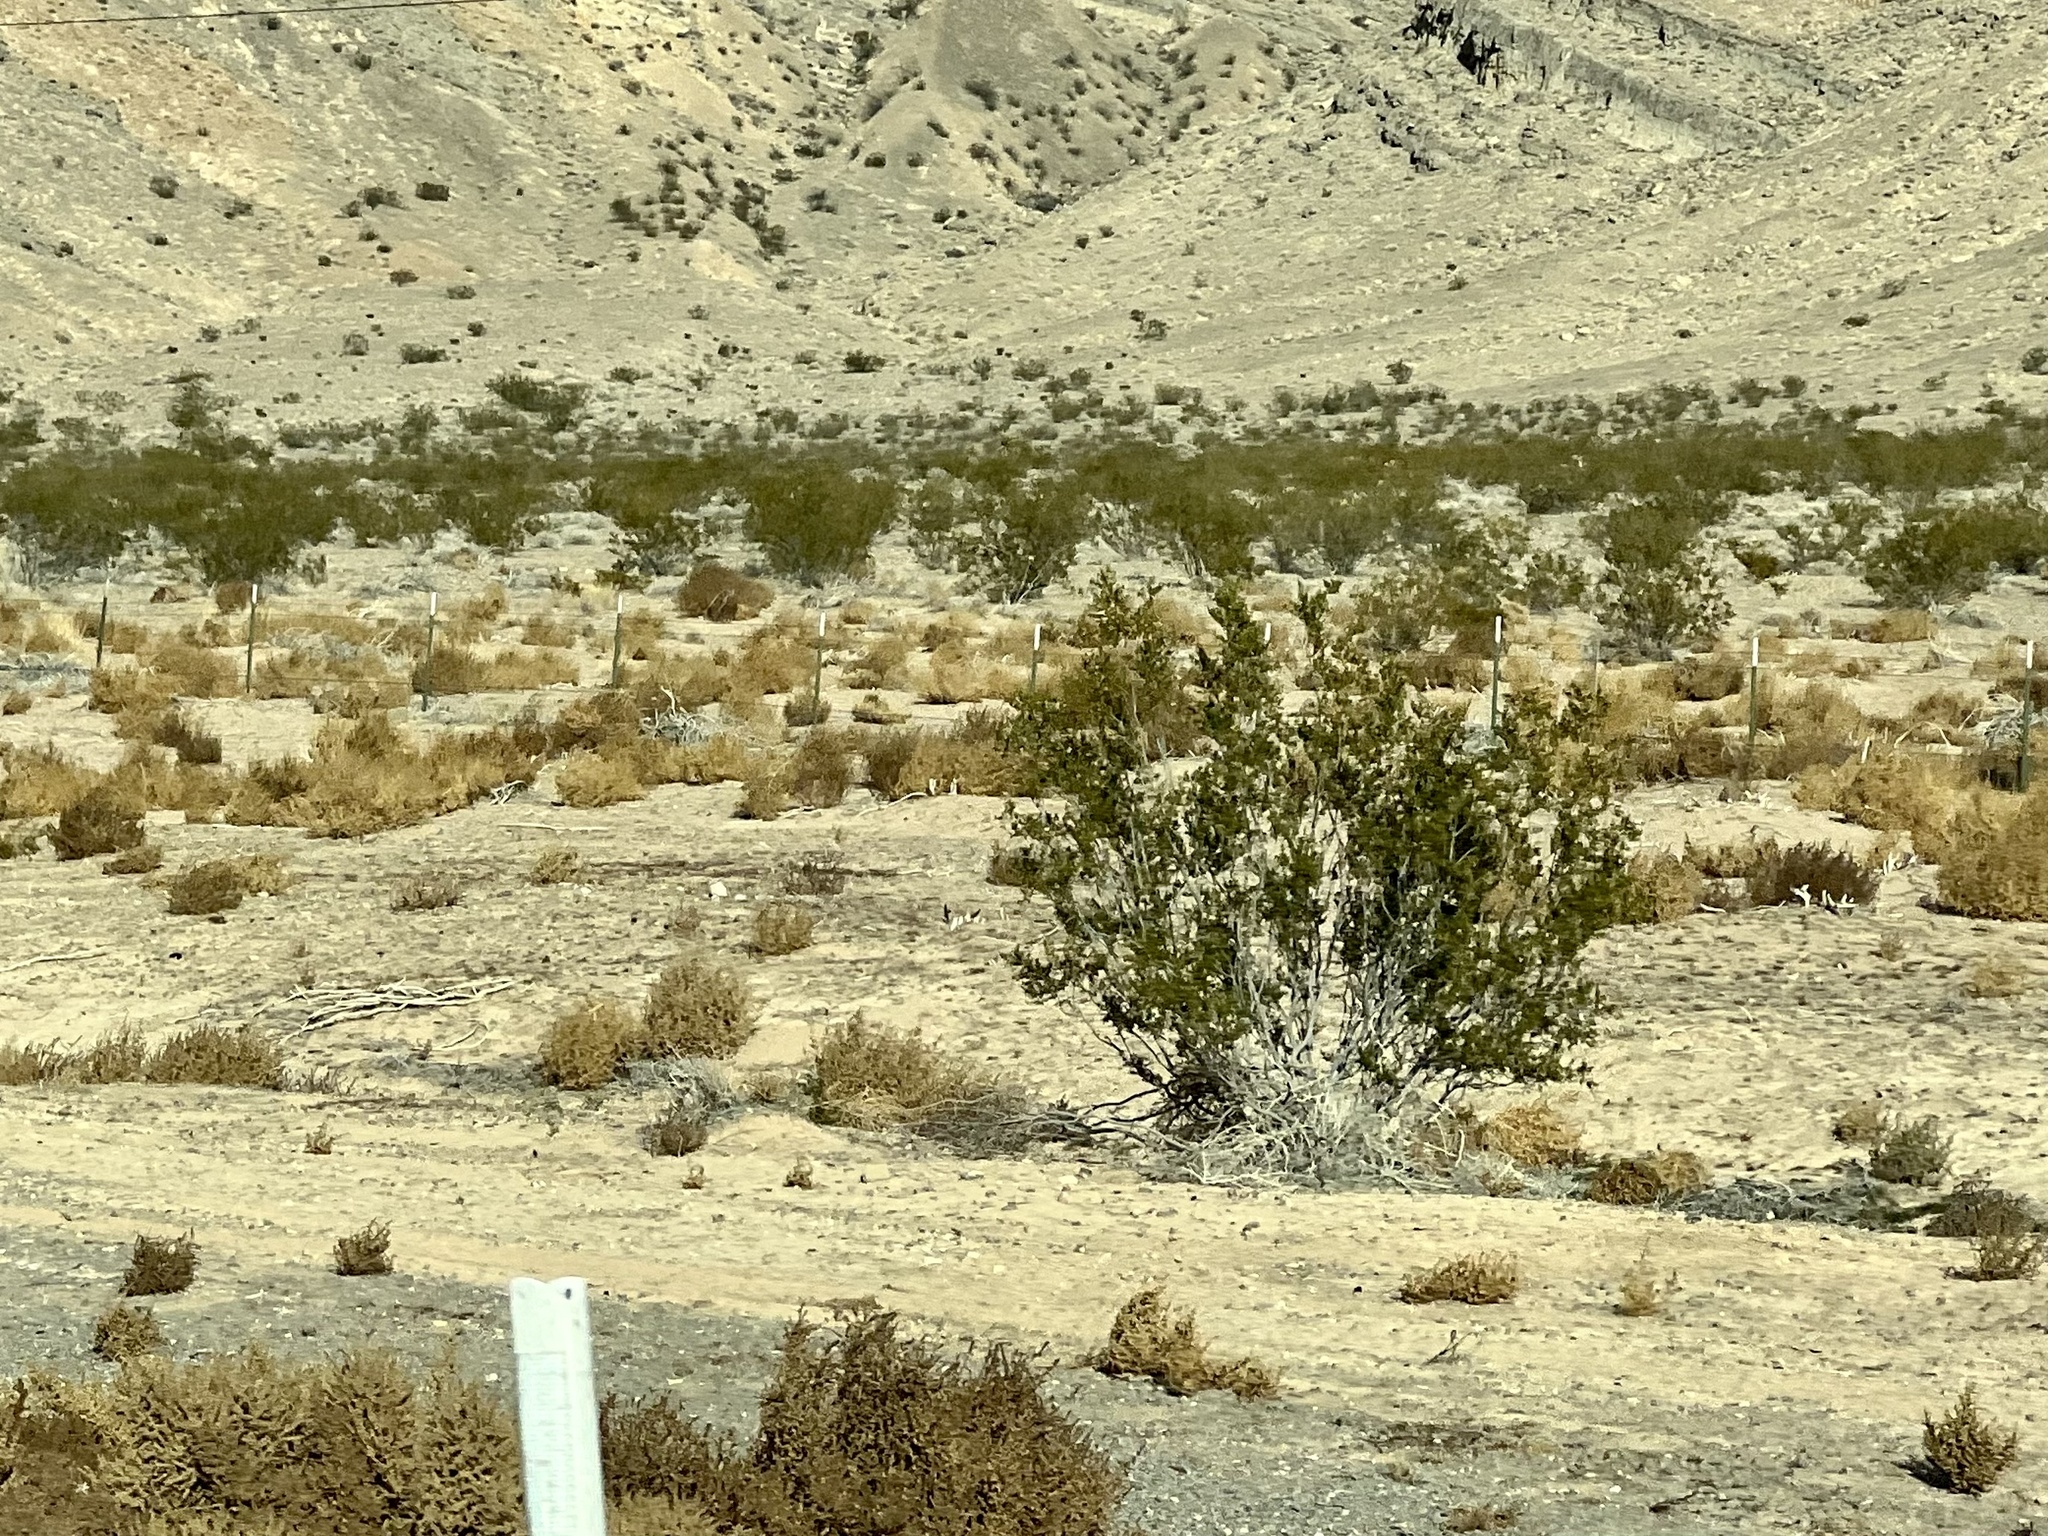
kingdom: Plantae
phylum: Tracheophyta
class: Magnoliopsida
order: Zygophyllales
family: Zygophyllaceae
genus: Larrea
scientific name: Larrea tridentata
